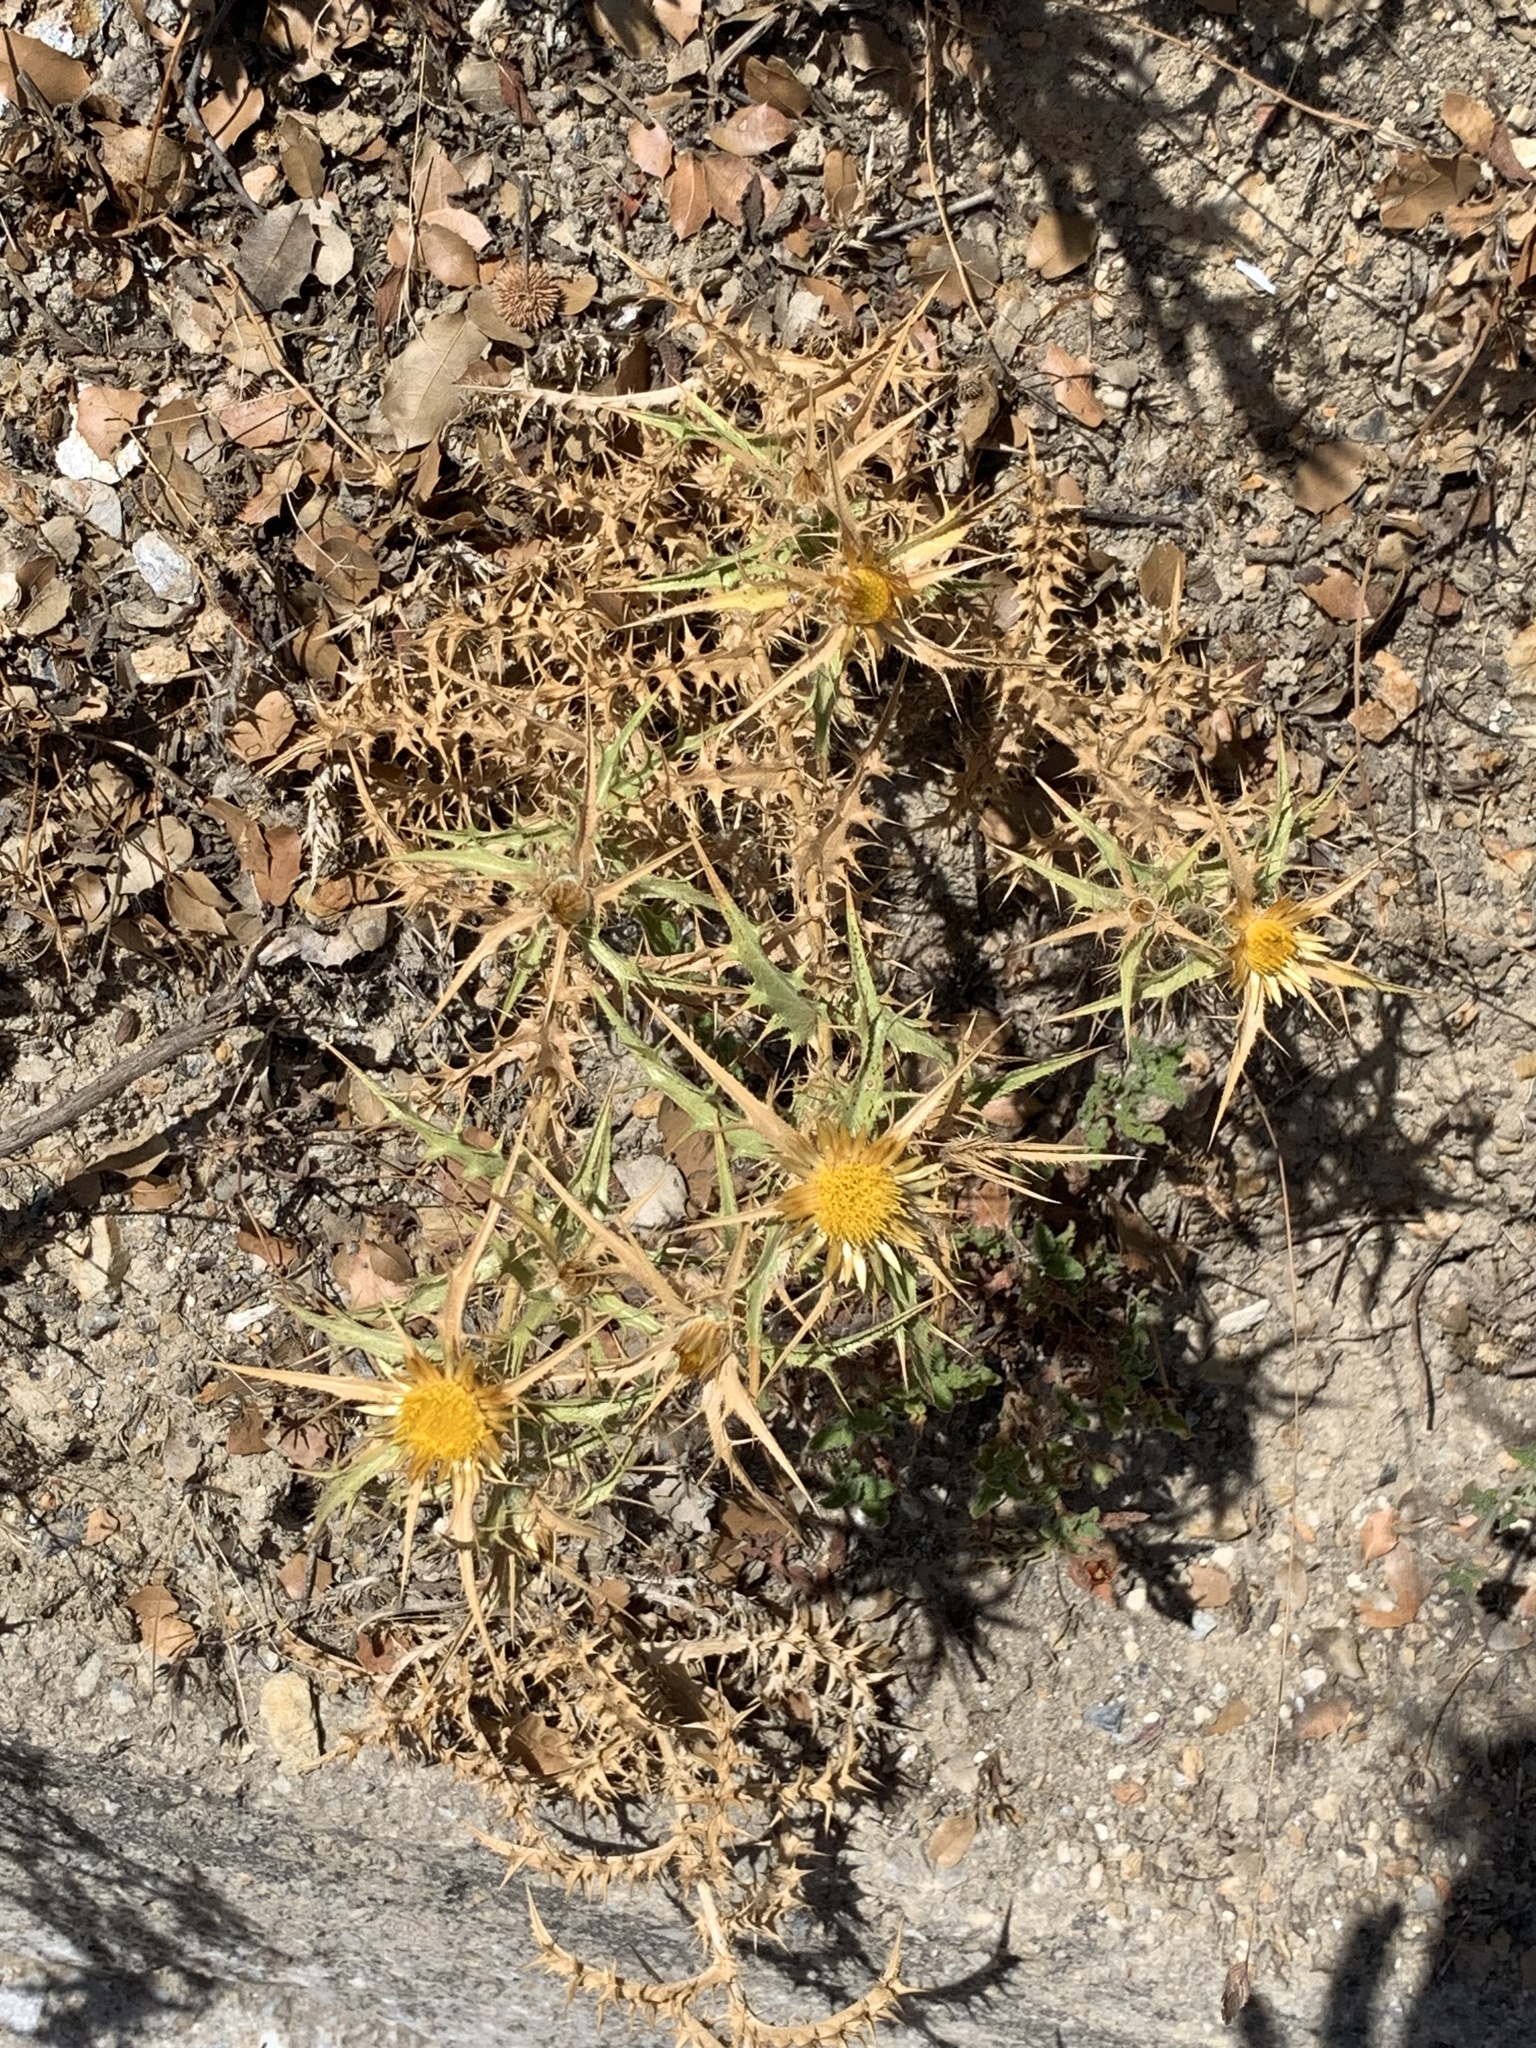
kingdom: Plantae
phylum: Tracheophyta
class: Magnoliopsida
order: Asterales
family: Asteraceae
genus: Carlina
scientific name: Carlina graeca
